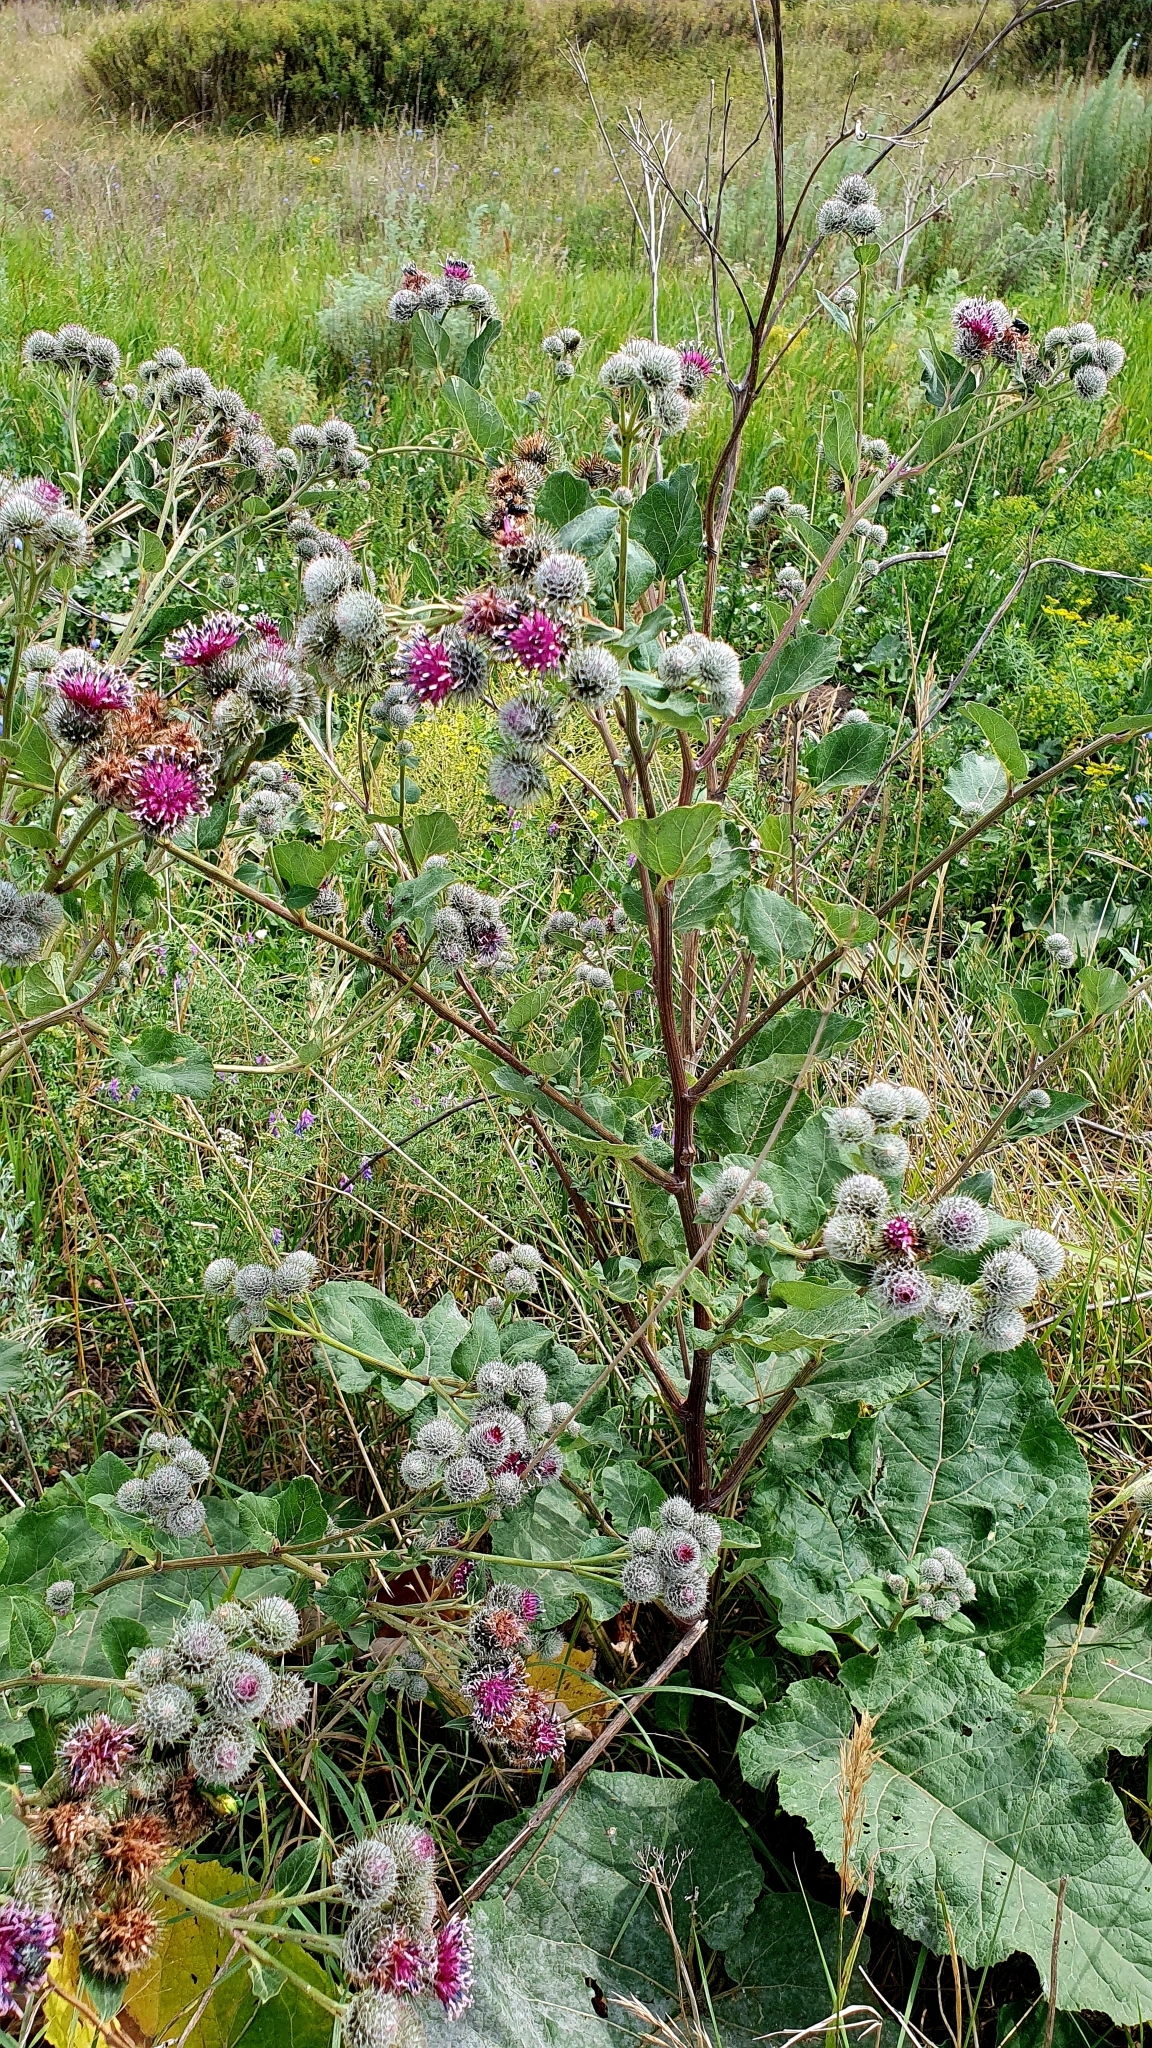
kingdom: Plantae
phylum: Tracheophyta
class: Magnoliopsida
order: Asterales
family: Asteraceae
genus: Arctium
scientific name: Arctium tomentosum
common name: Woolly burdock
